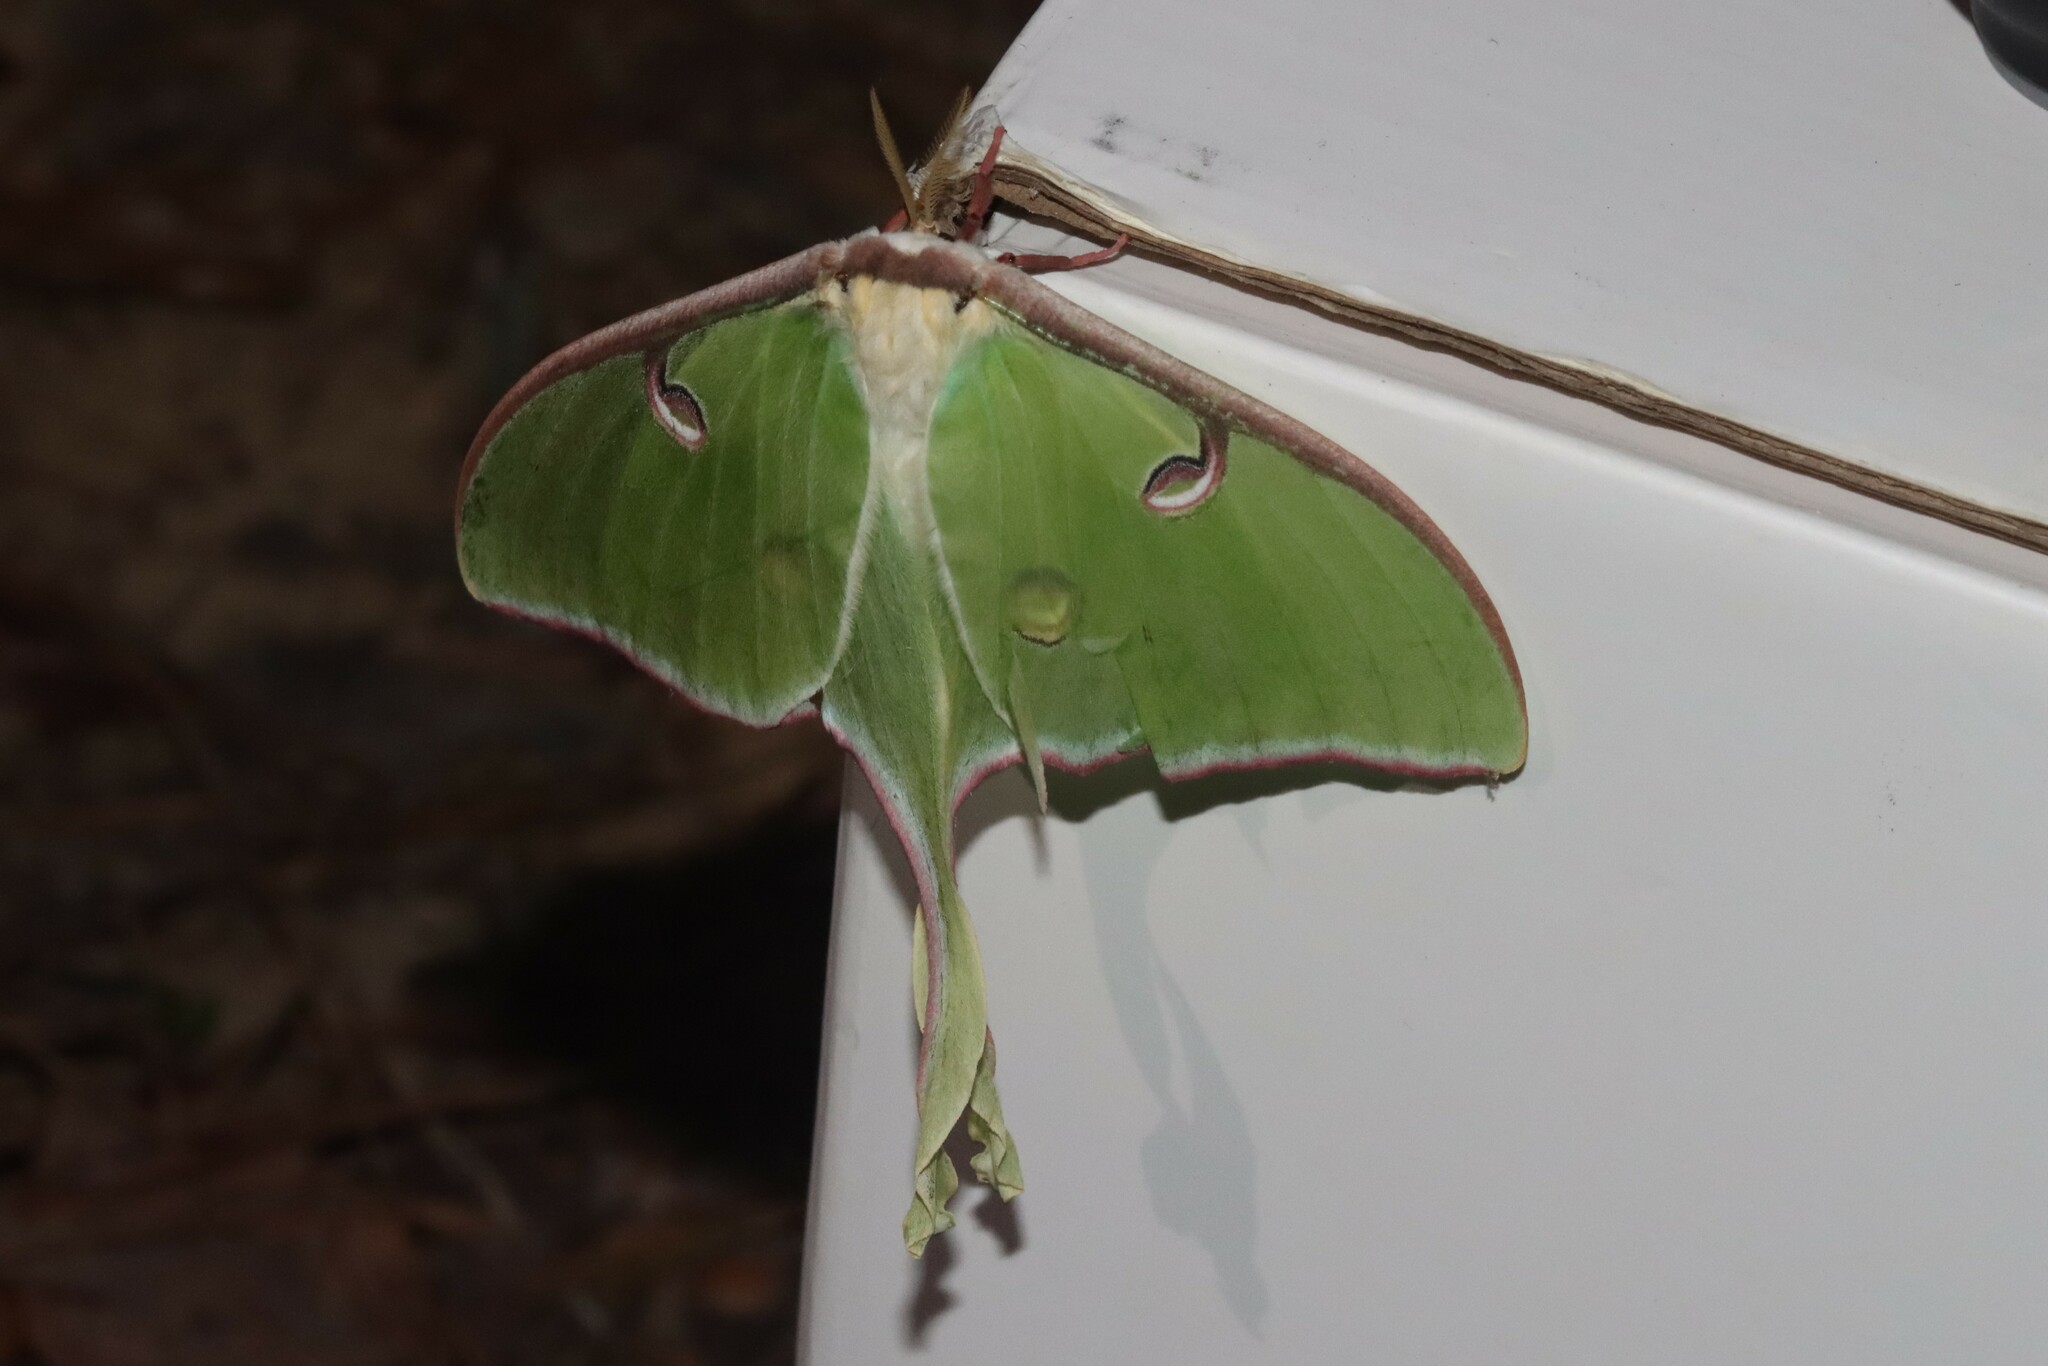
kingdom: Animalia
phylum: Arthropoda
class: Insecta
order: Lepidoptera
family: Saturniidae
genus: Actias
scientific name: Actias luna
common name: Luna moth
